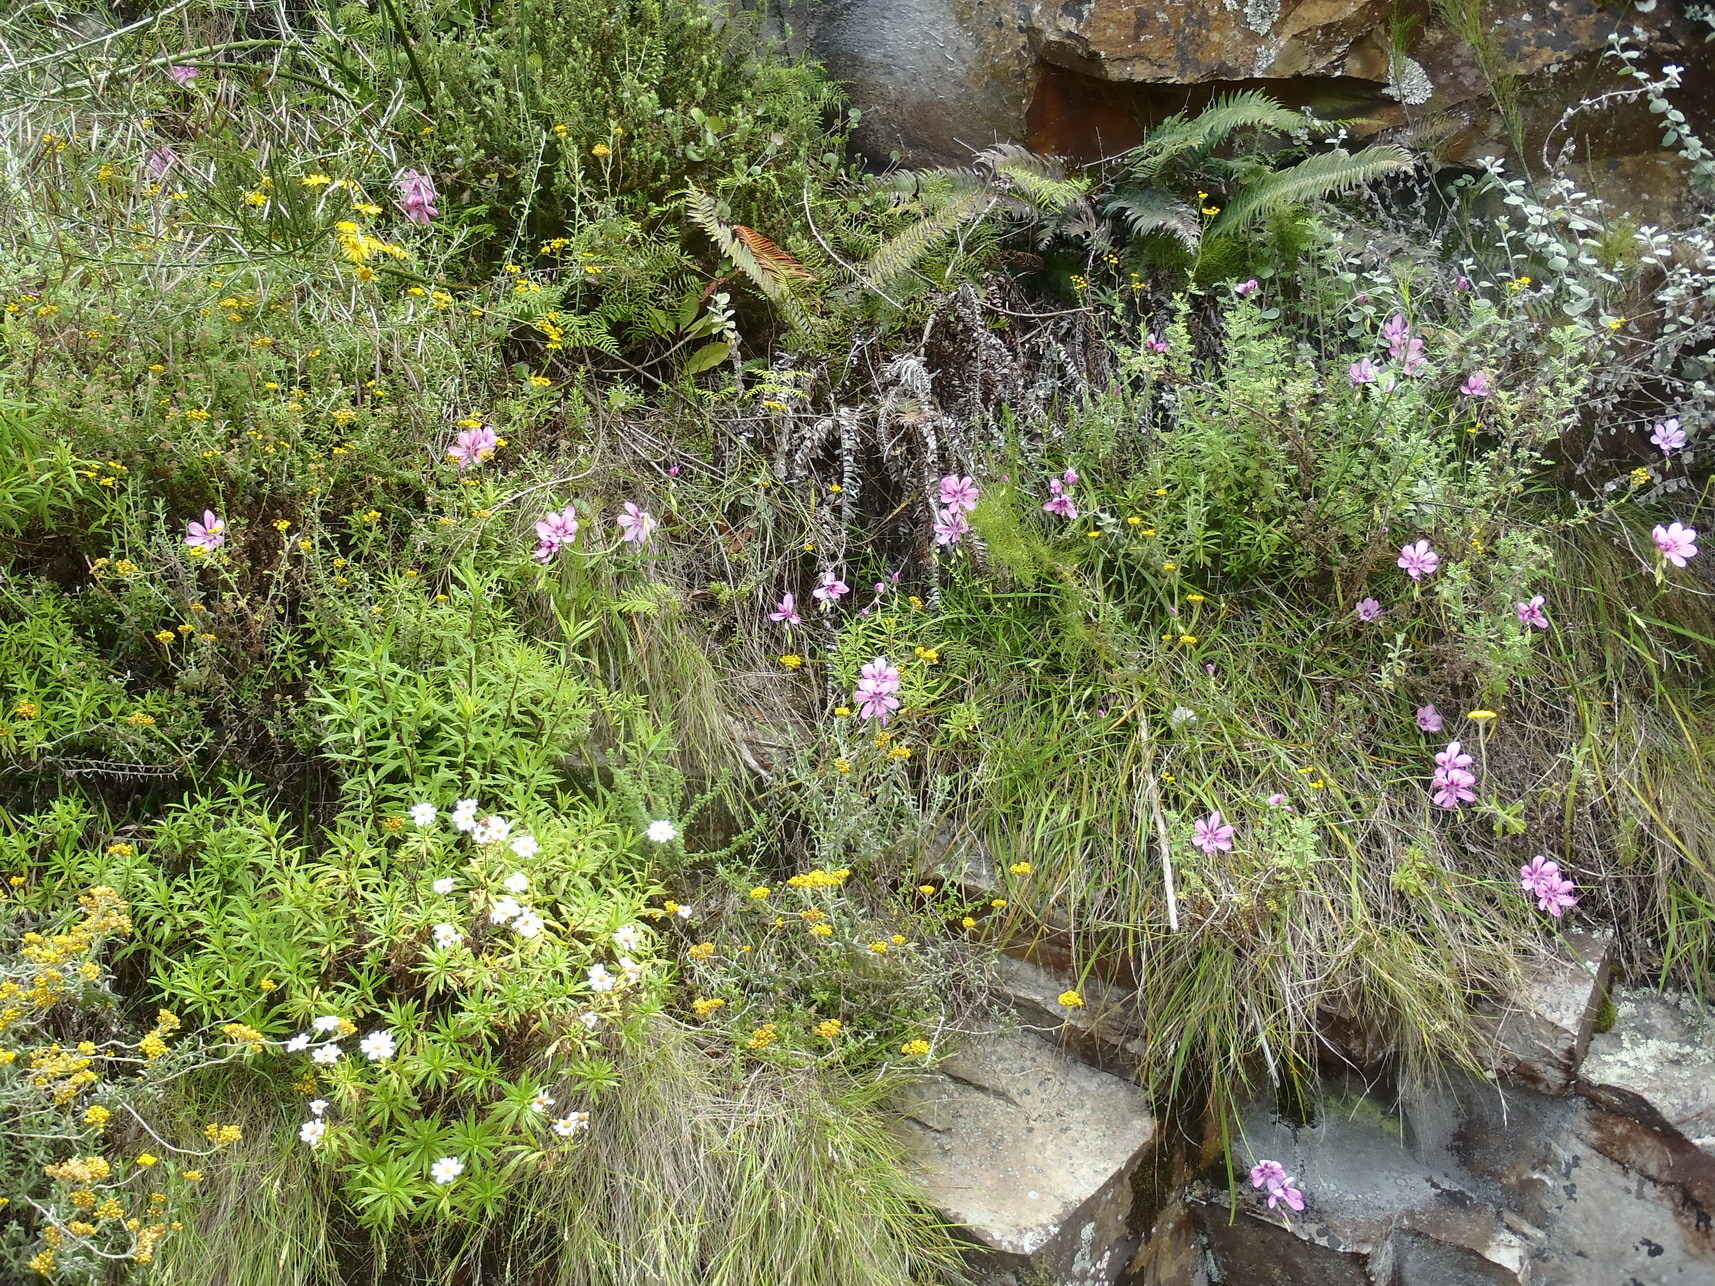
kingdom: Plantae
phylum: Tracheophyta
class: Liliopsida
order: Asparagales
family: Iridaceae
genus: Geissorhiza
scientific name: Geissorhiza outeniquensis
